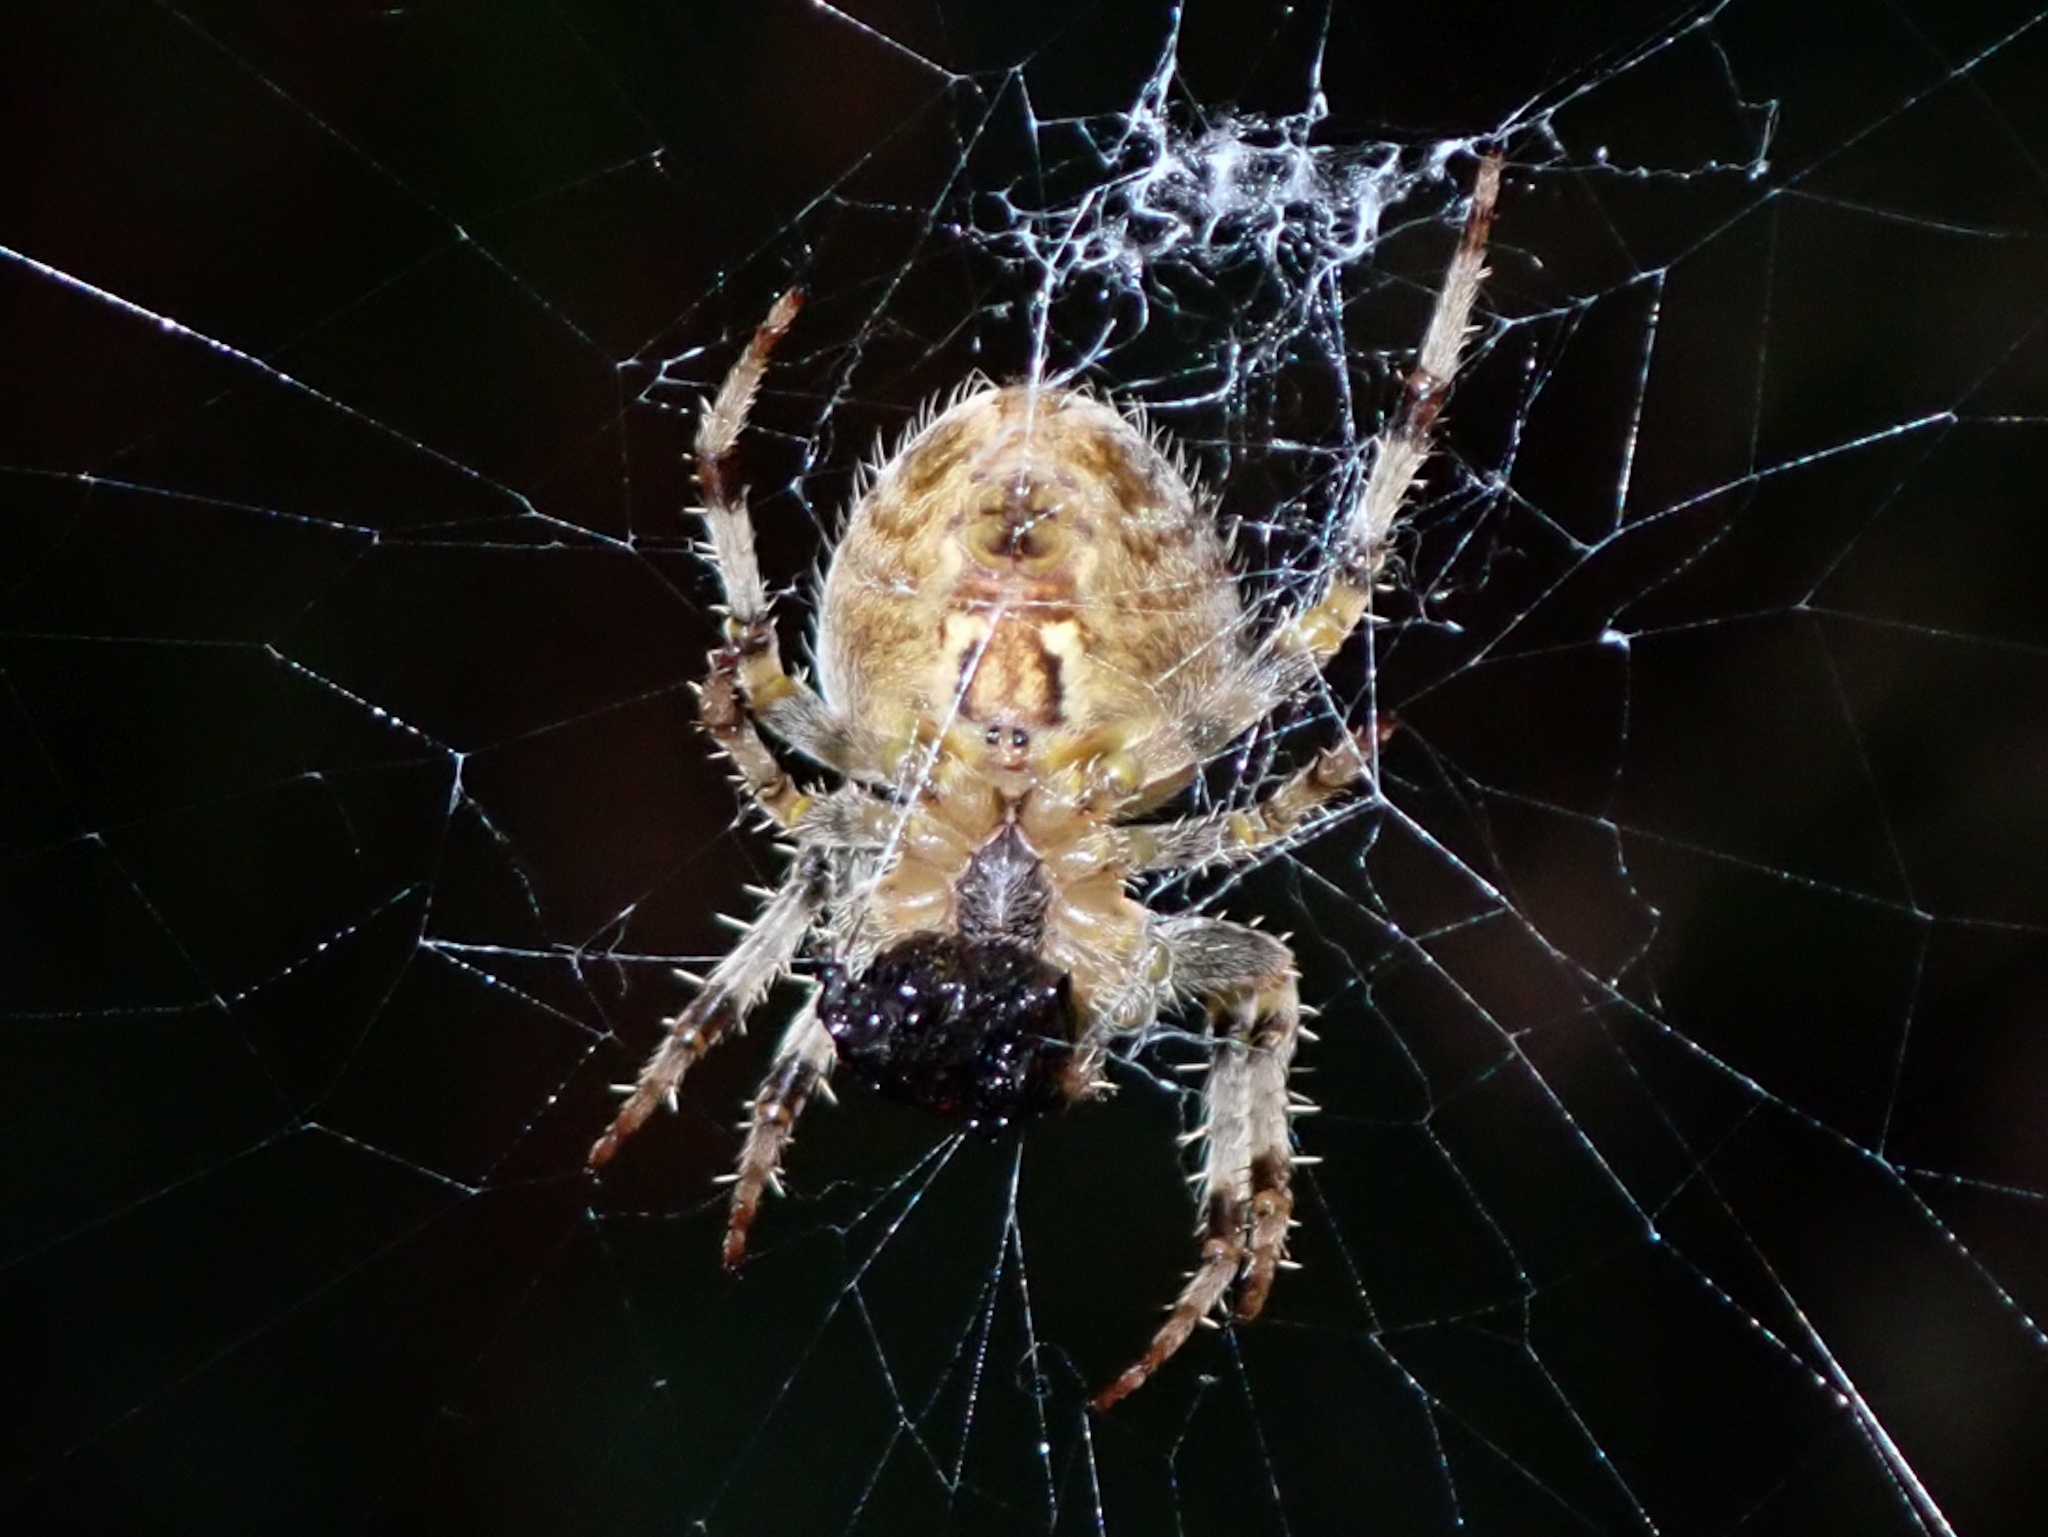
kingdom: Animalia
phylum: Arthropoda
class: Arachnida
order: Araneae
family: Araneidae
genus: Araneus
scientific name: Araneus diadematus
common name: Cross orbweaver
